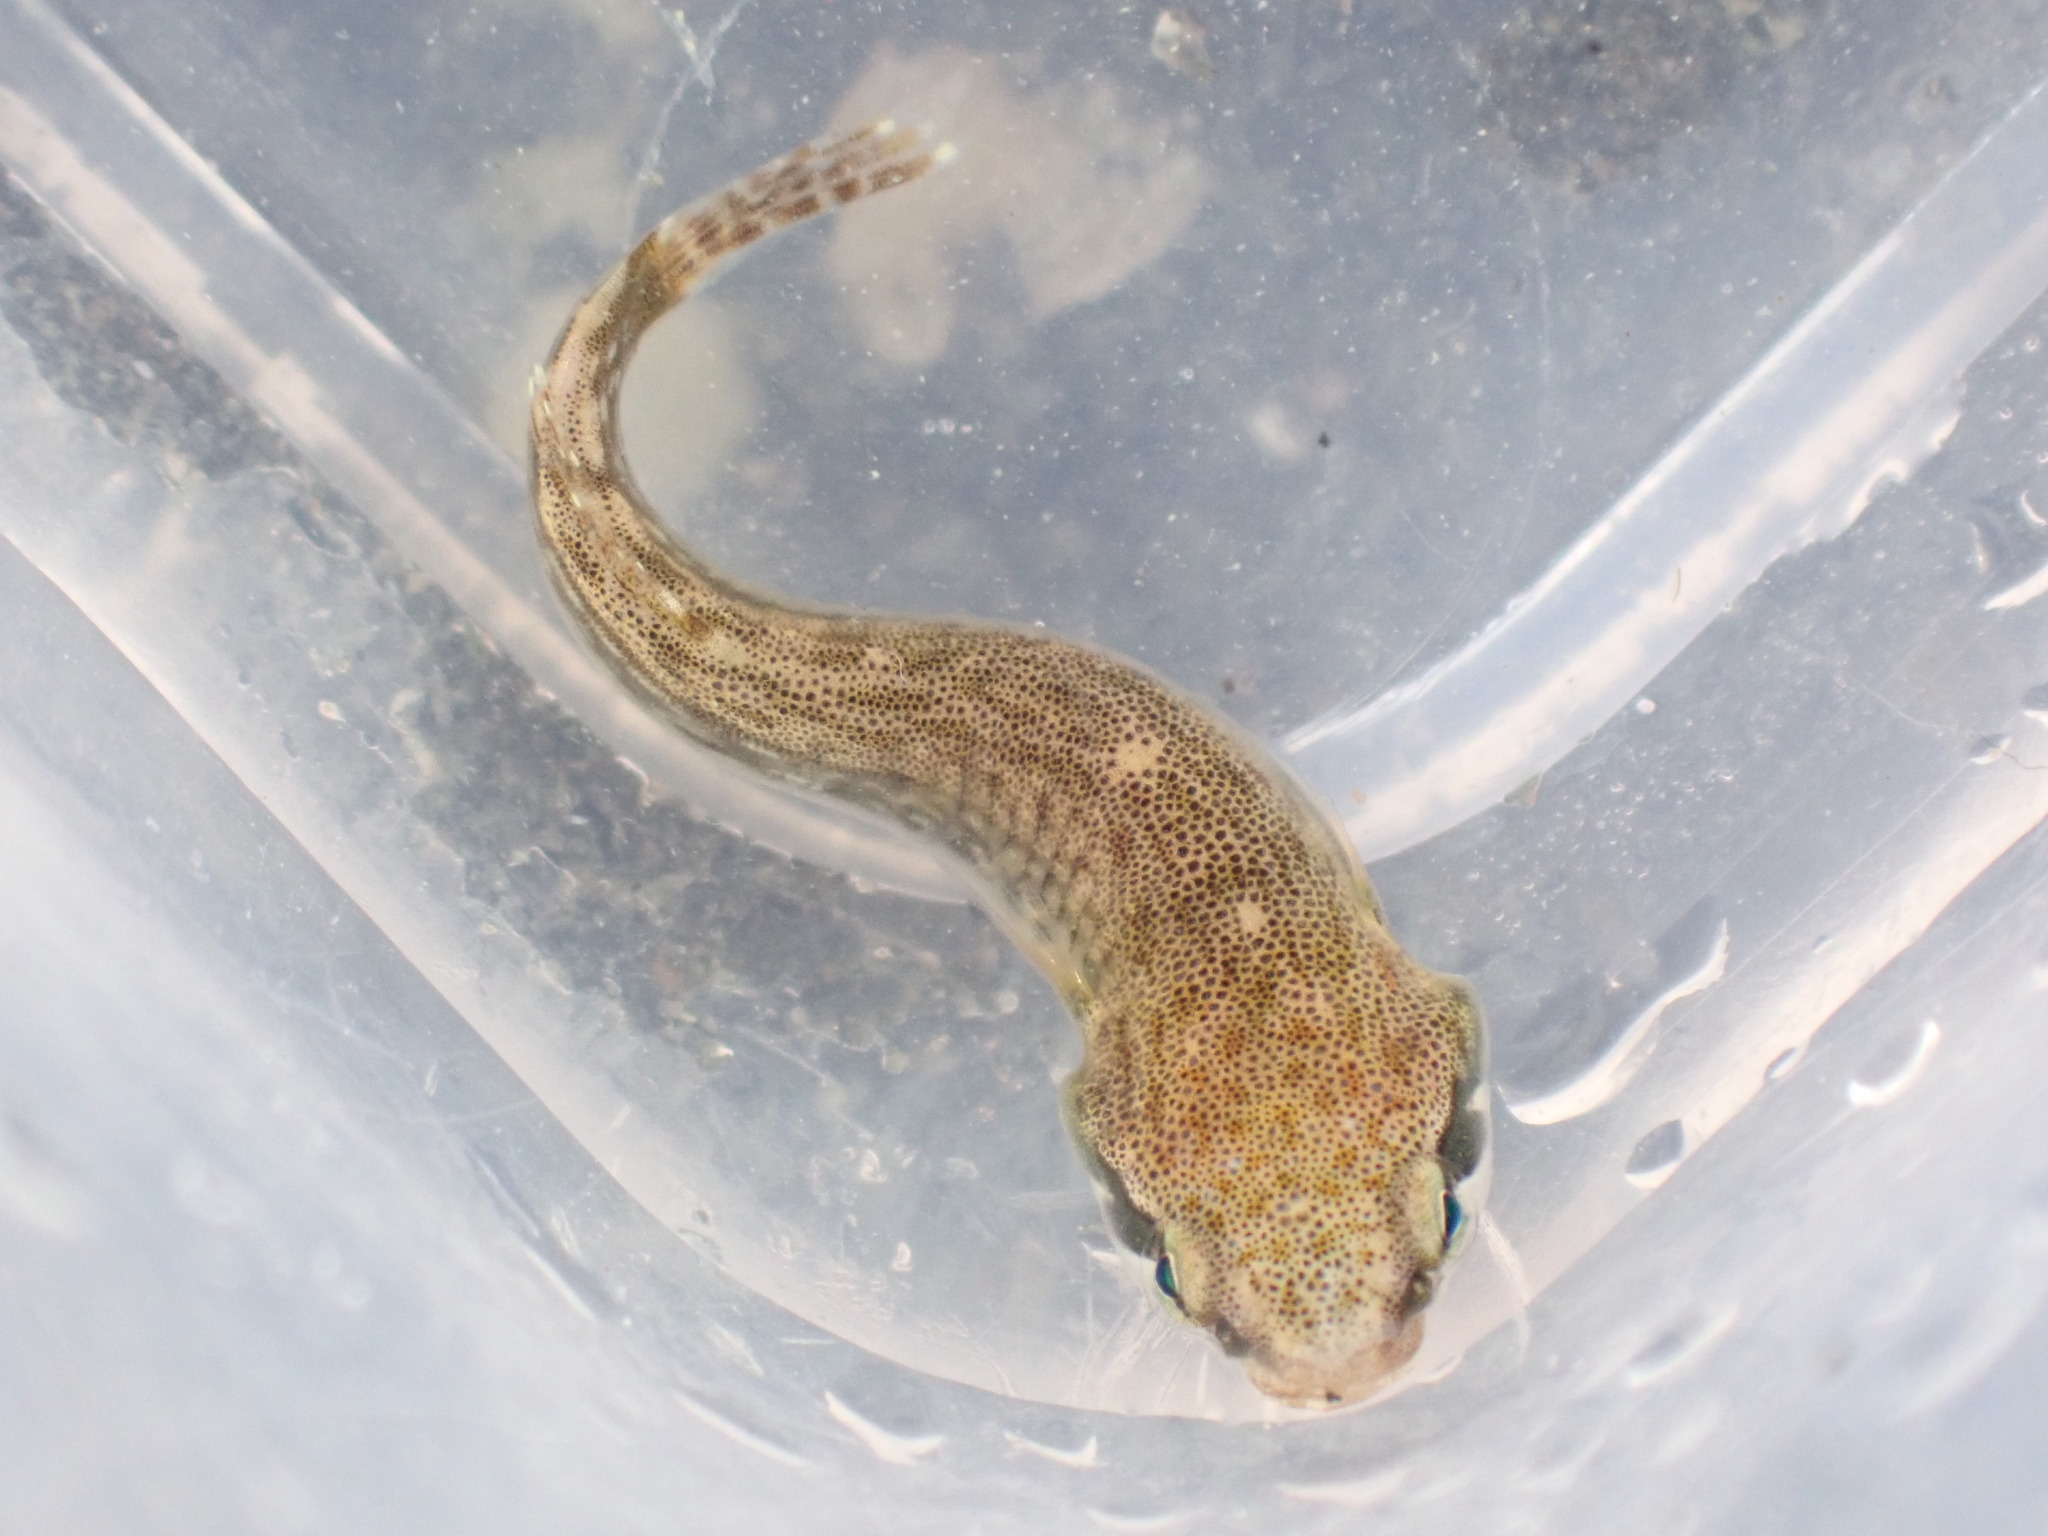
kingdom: Animalia
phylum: Chordata
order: Gobiesociformes
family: Gobiesocidae
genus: Trachelochismus
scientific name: Trachelochismus aestuarium
